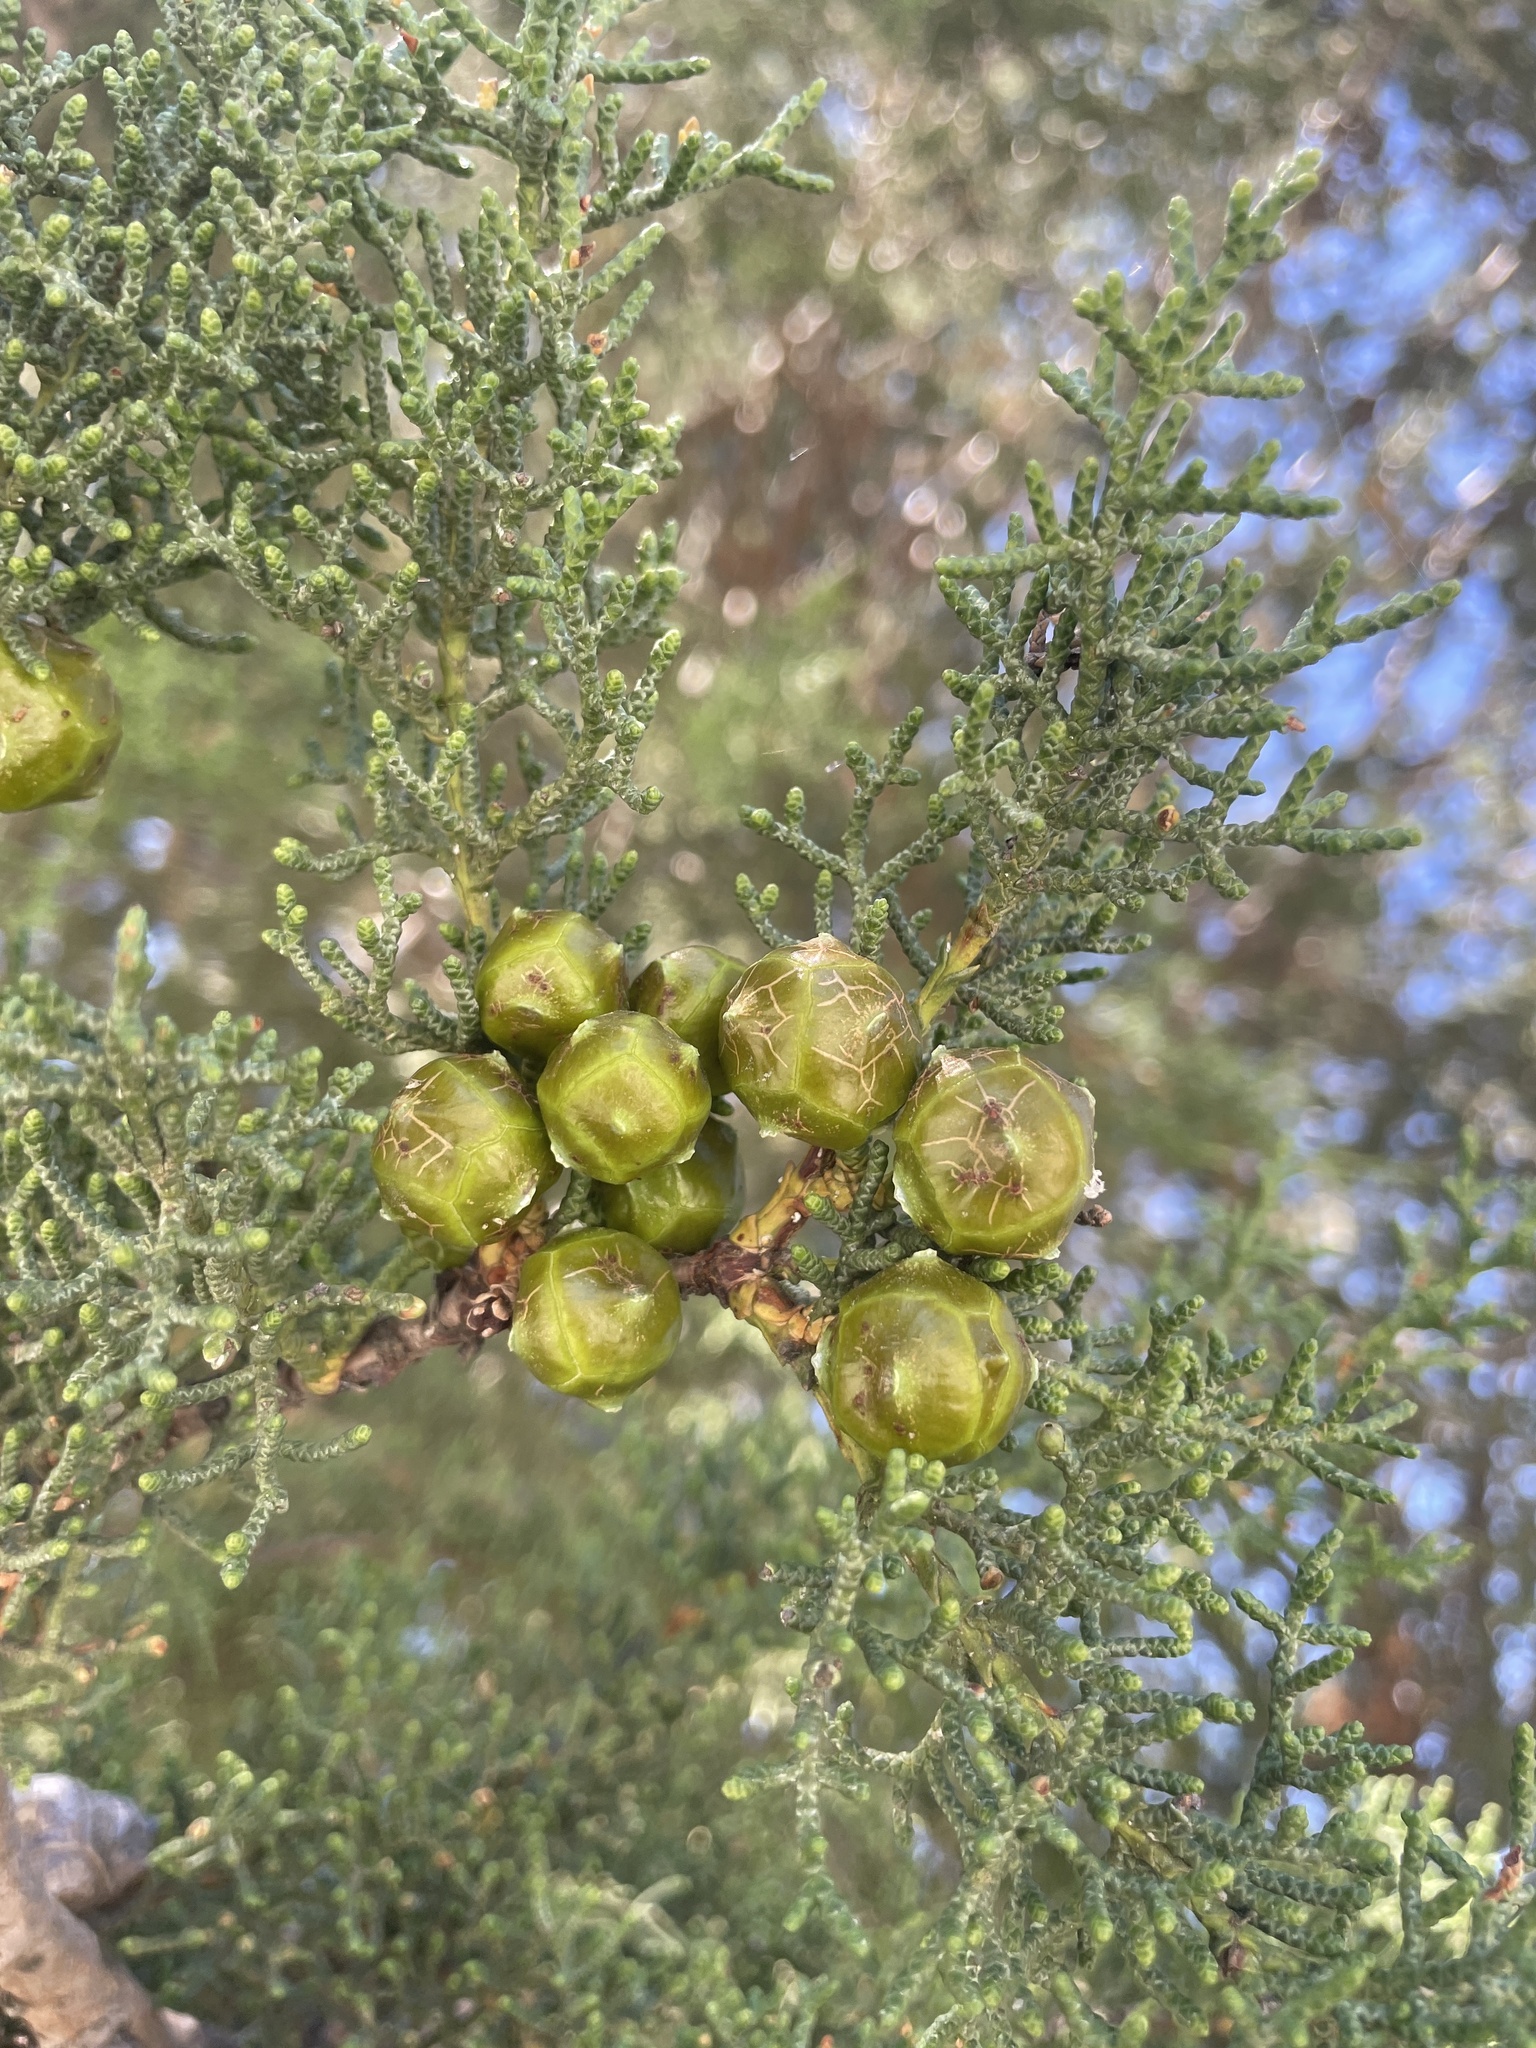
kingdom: Plantae
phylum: Tracheophyta
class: Pinopsida
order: Pinales
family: Cupressaceae
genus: Cupressus
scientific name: Cupressus goveniana
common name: Gowen cypress
